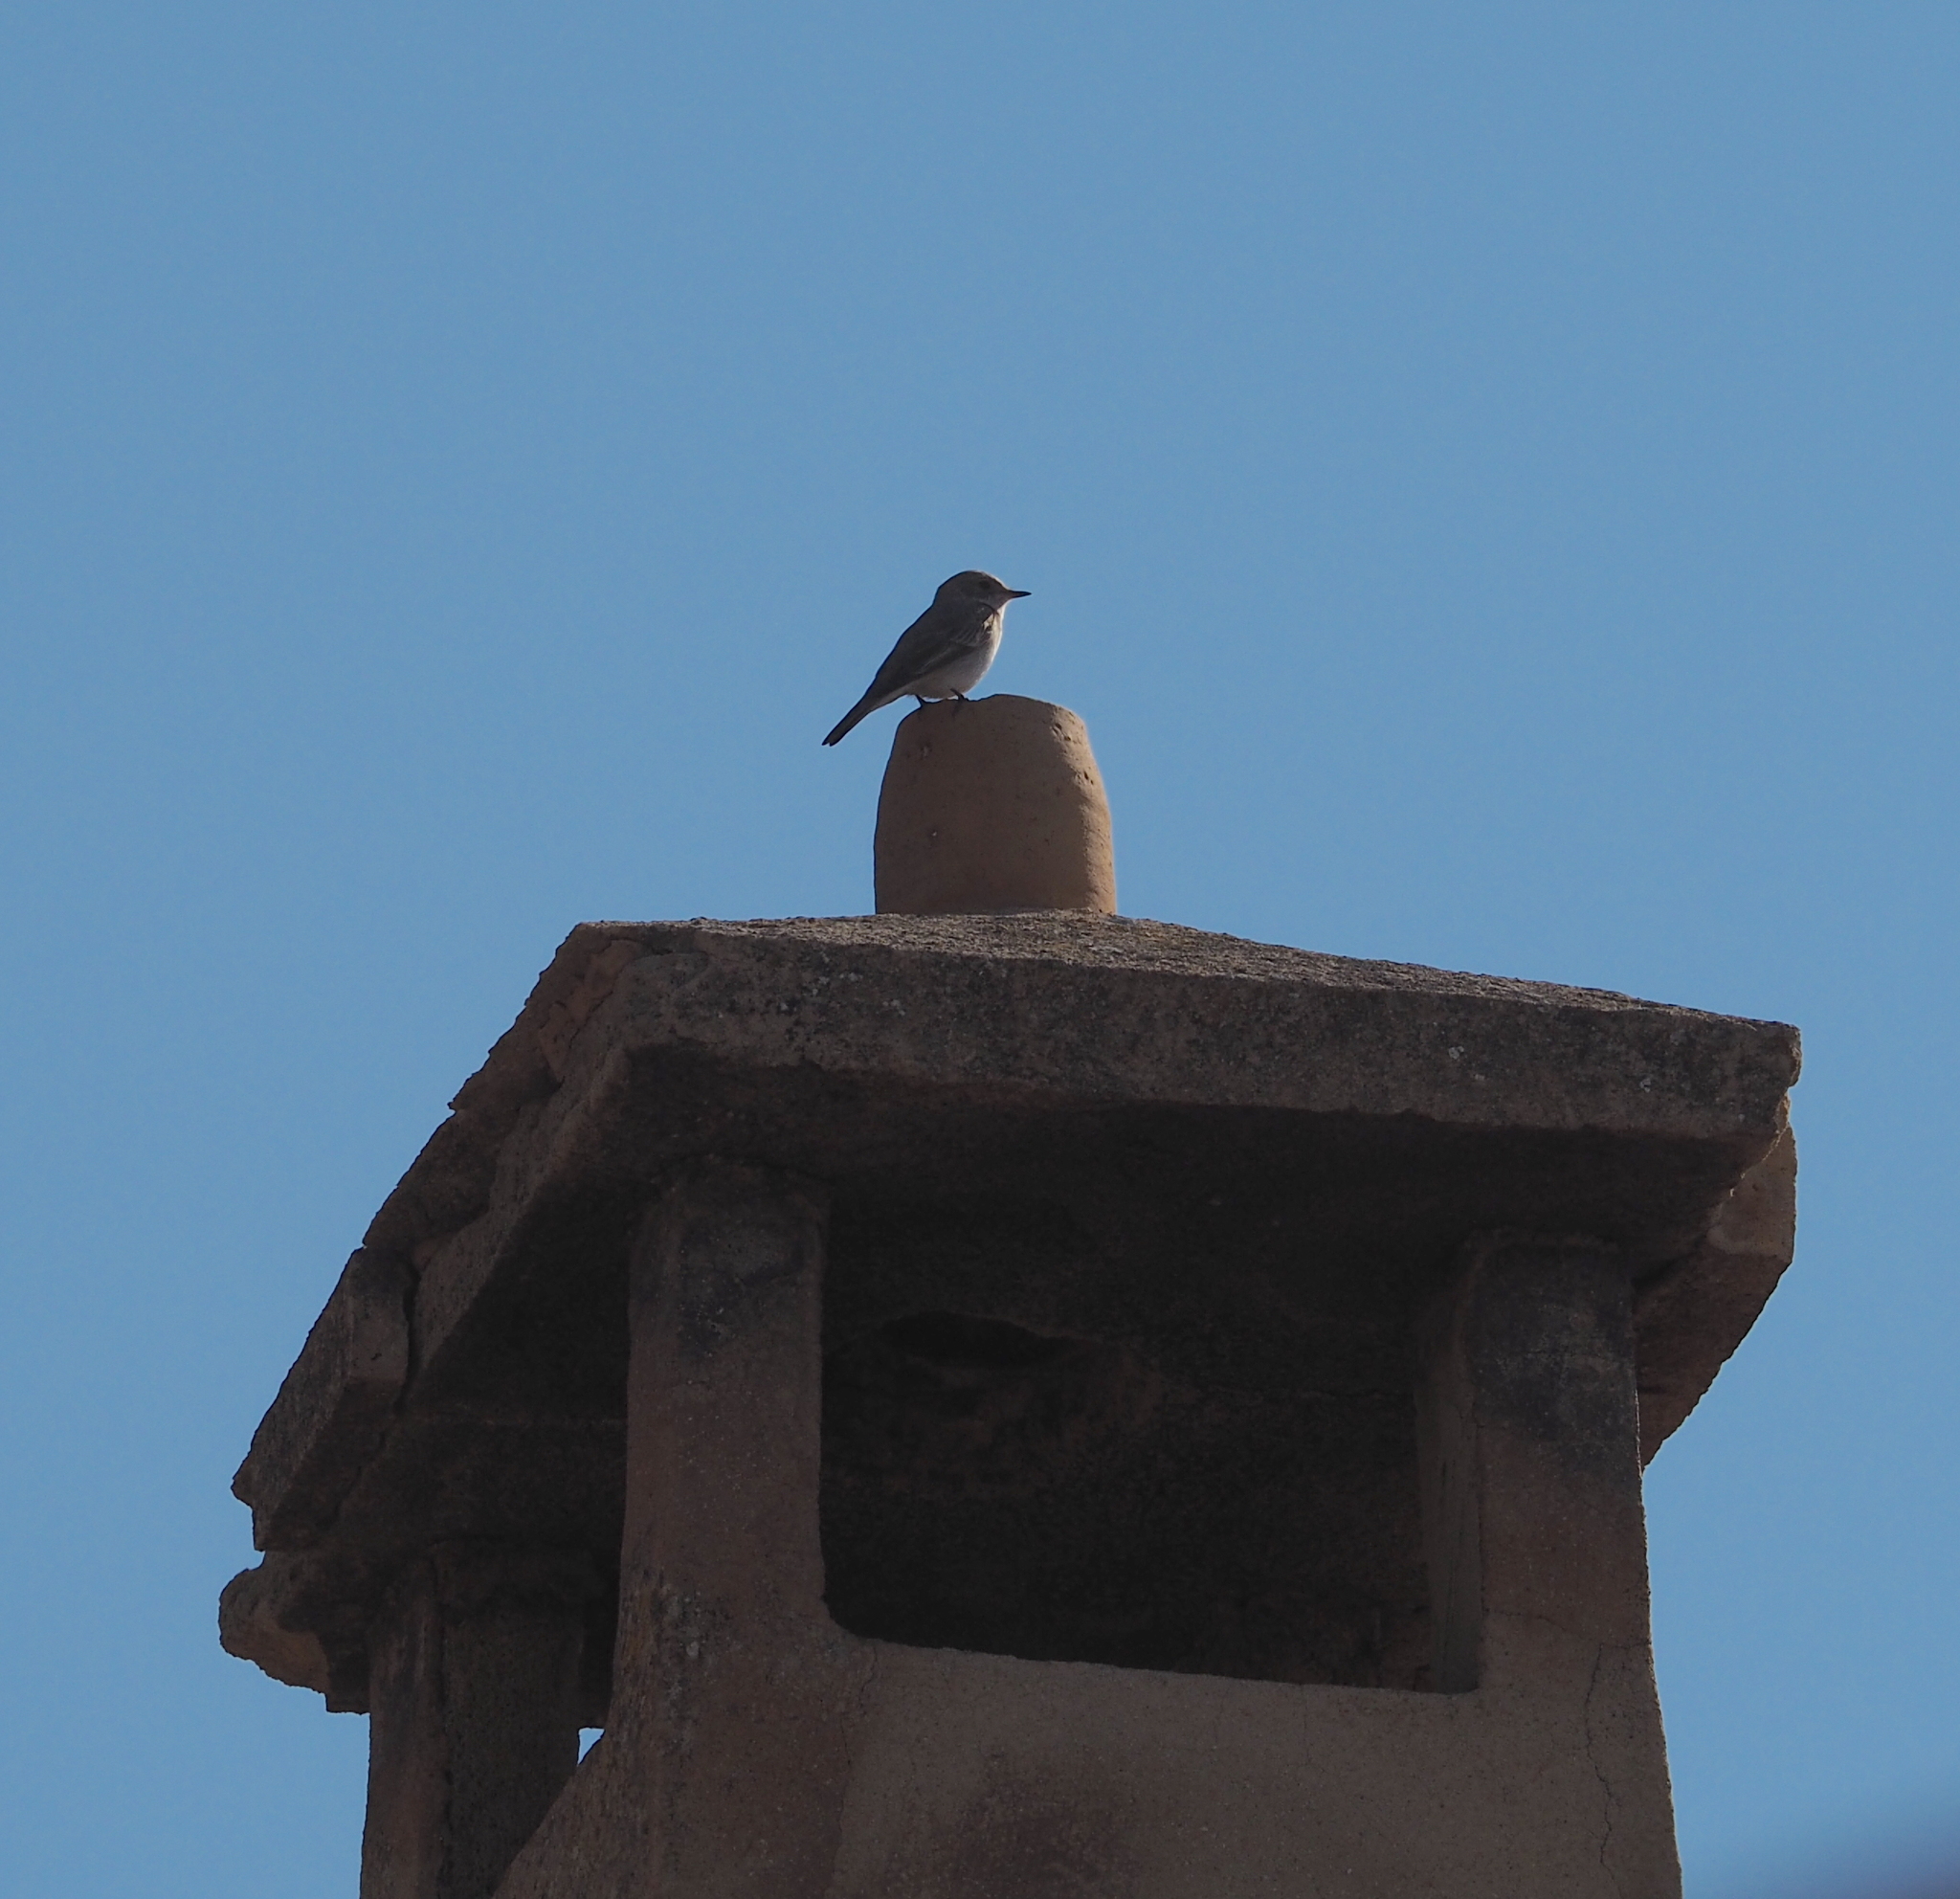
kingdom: Animalia
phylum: Chordata
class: Aves
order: Passeriformes
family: Muscicapidae
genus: Muscicapa
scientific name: Muscicapa striata
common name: Spotted flycatcher
